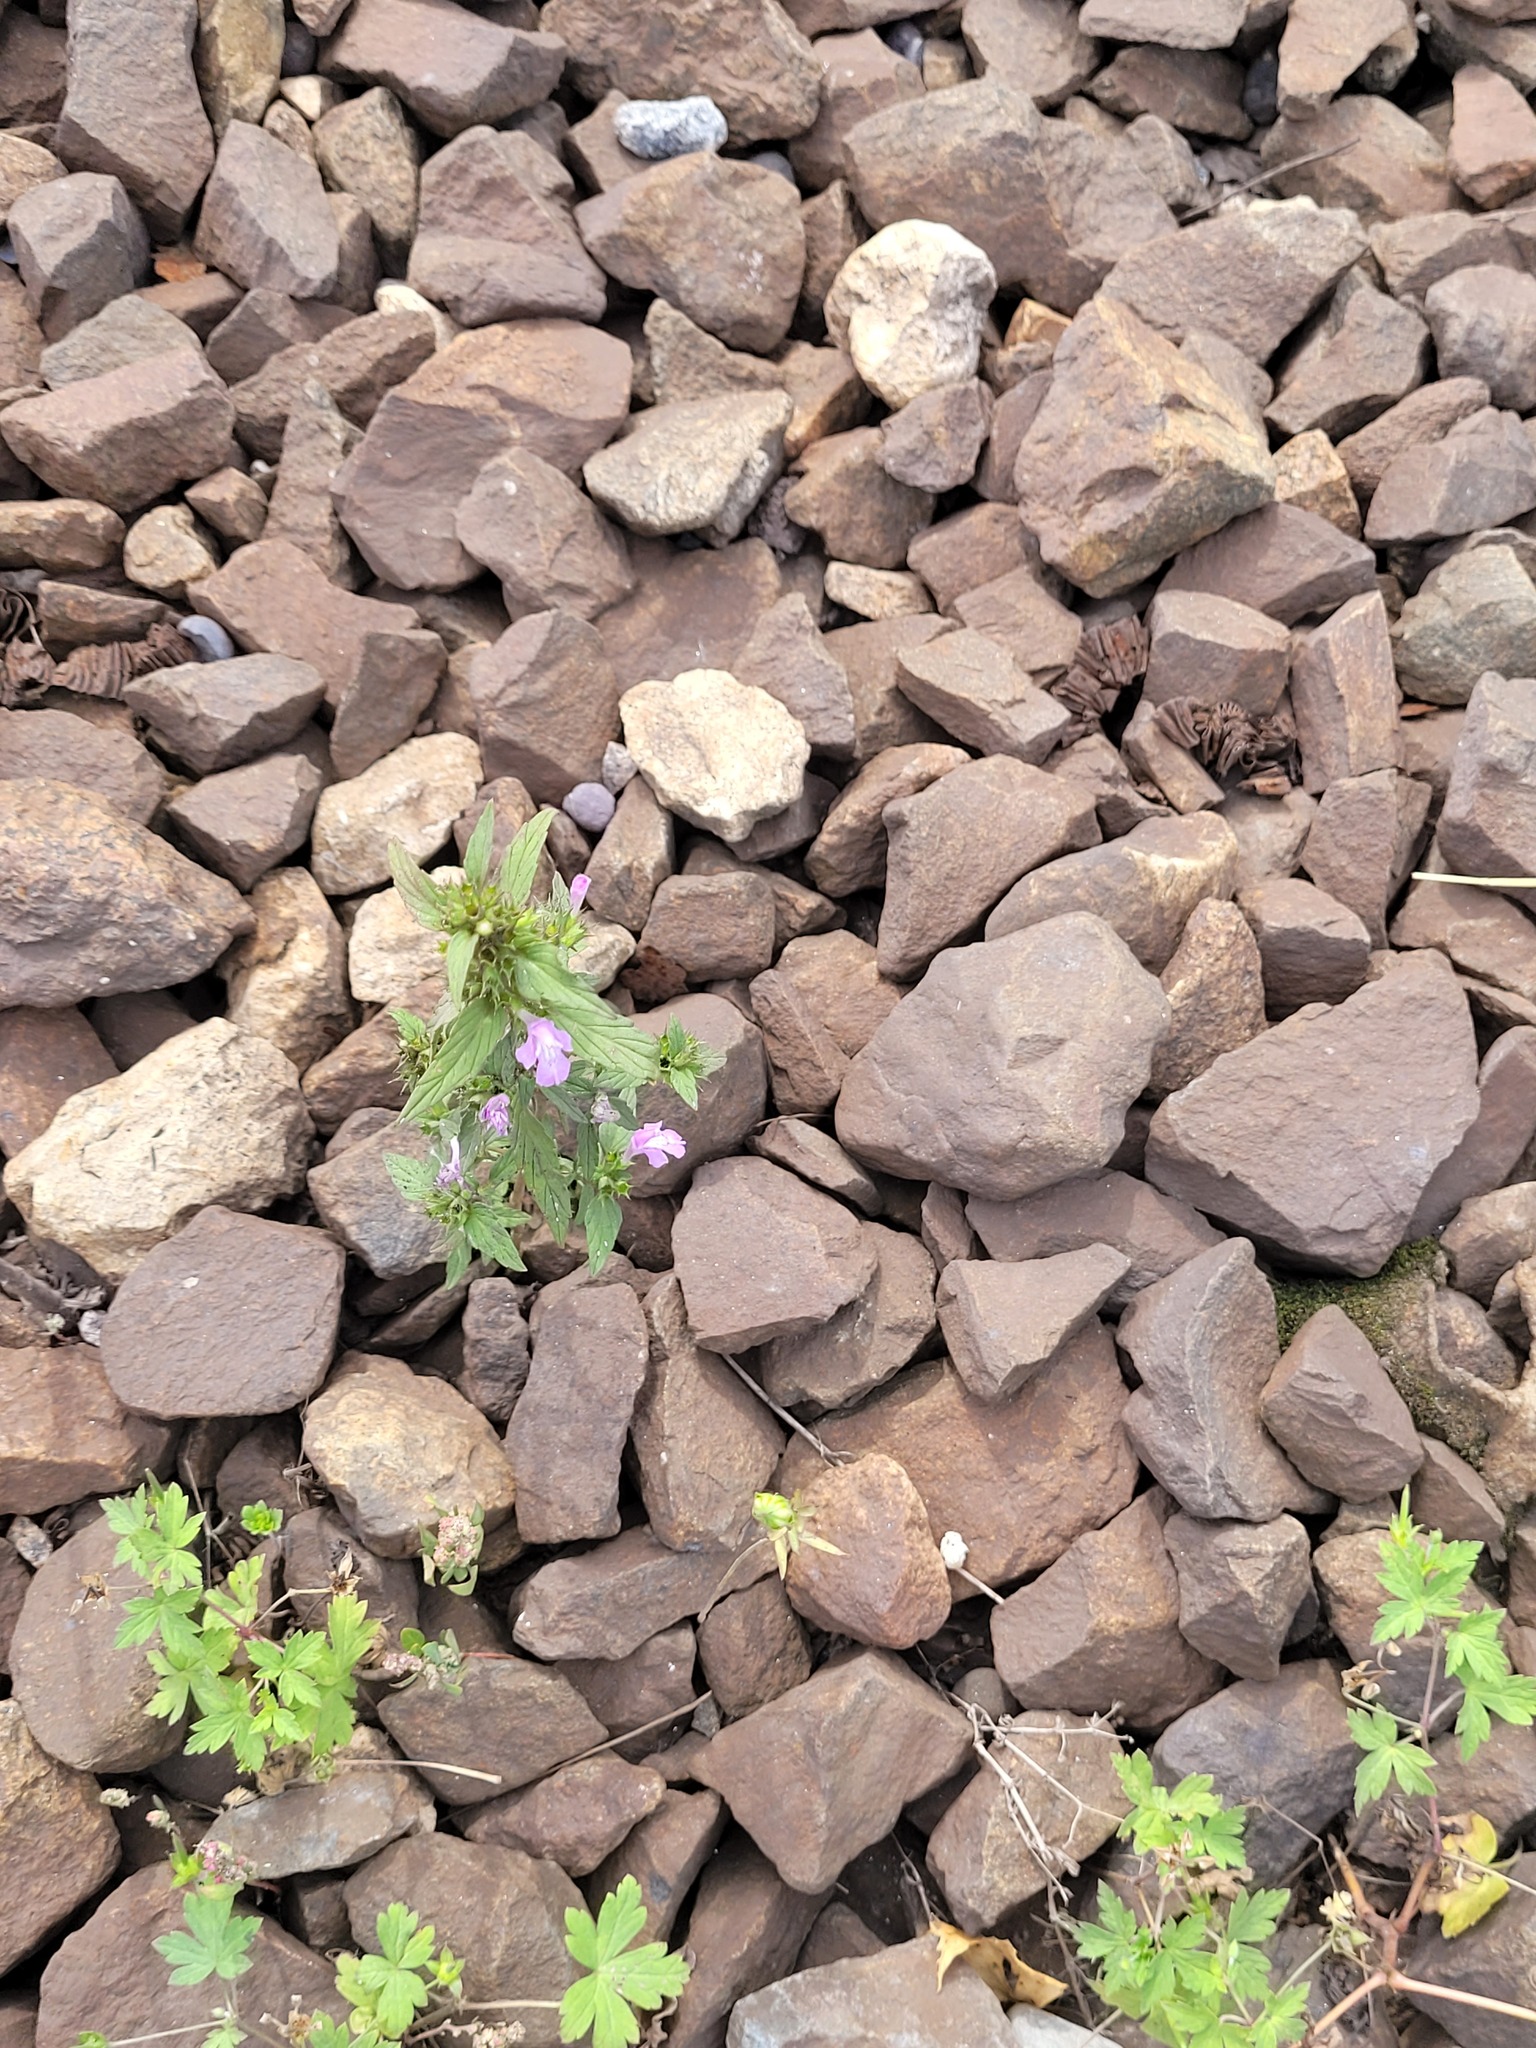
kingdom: Plantae
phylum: Tracheophyta
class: Magnoliopsida
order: Lamiales
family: Lamiaceae
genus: Galeopsis
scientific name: Galeopsis ladanum
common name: Broad-leaved hemp-nettle
